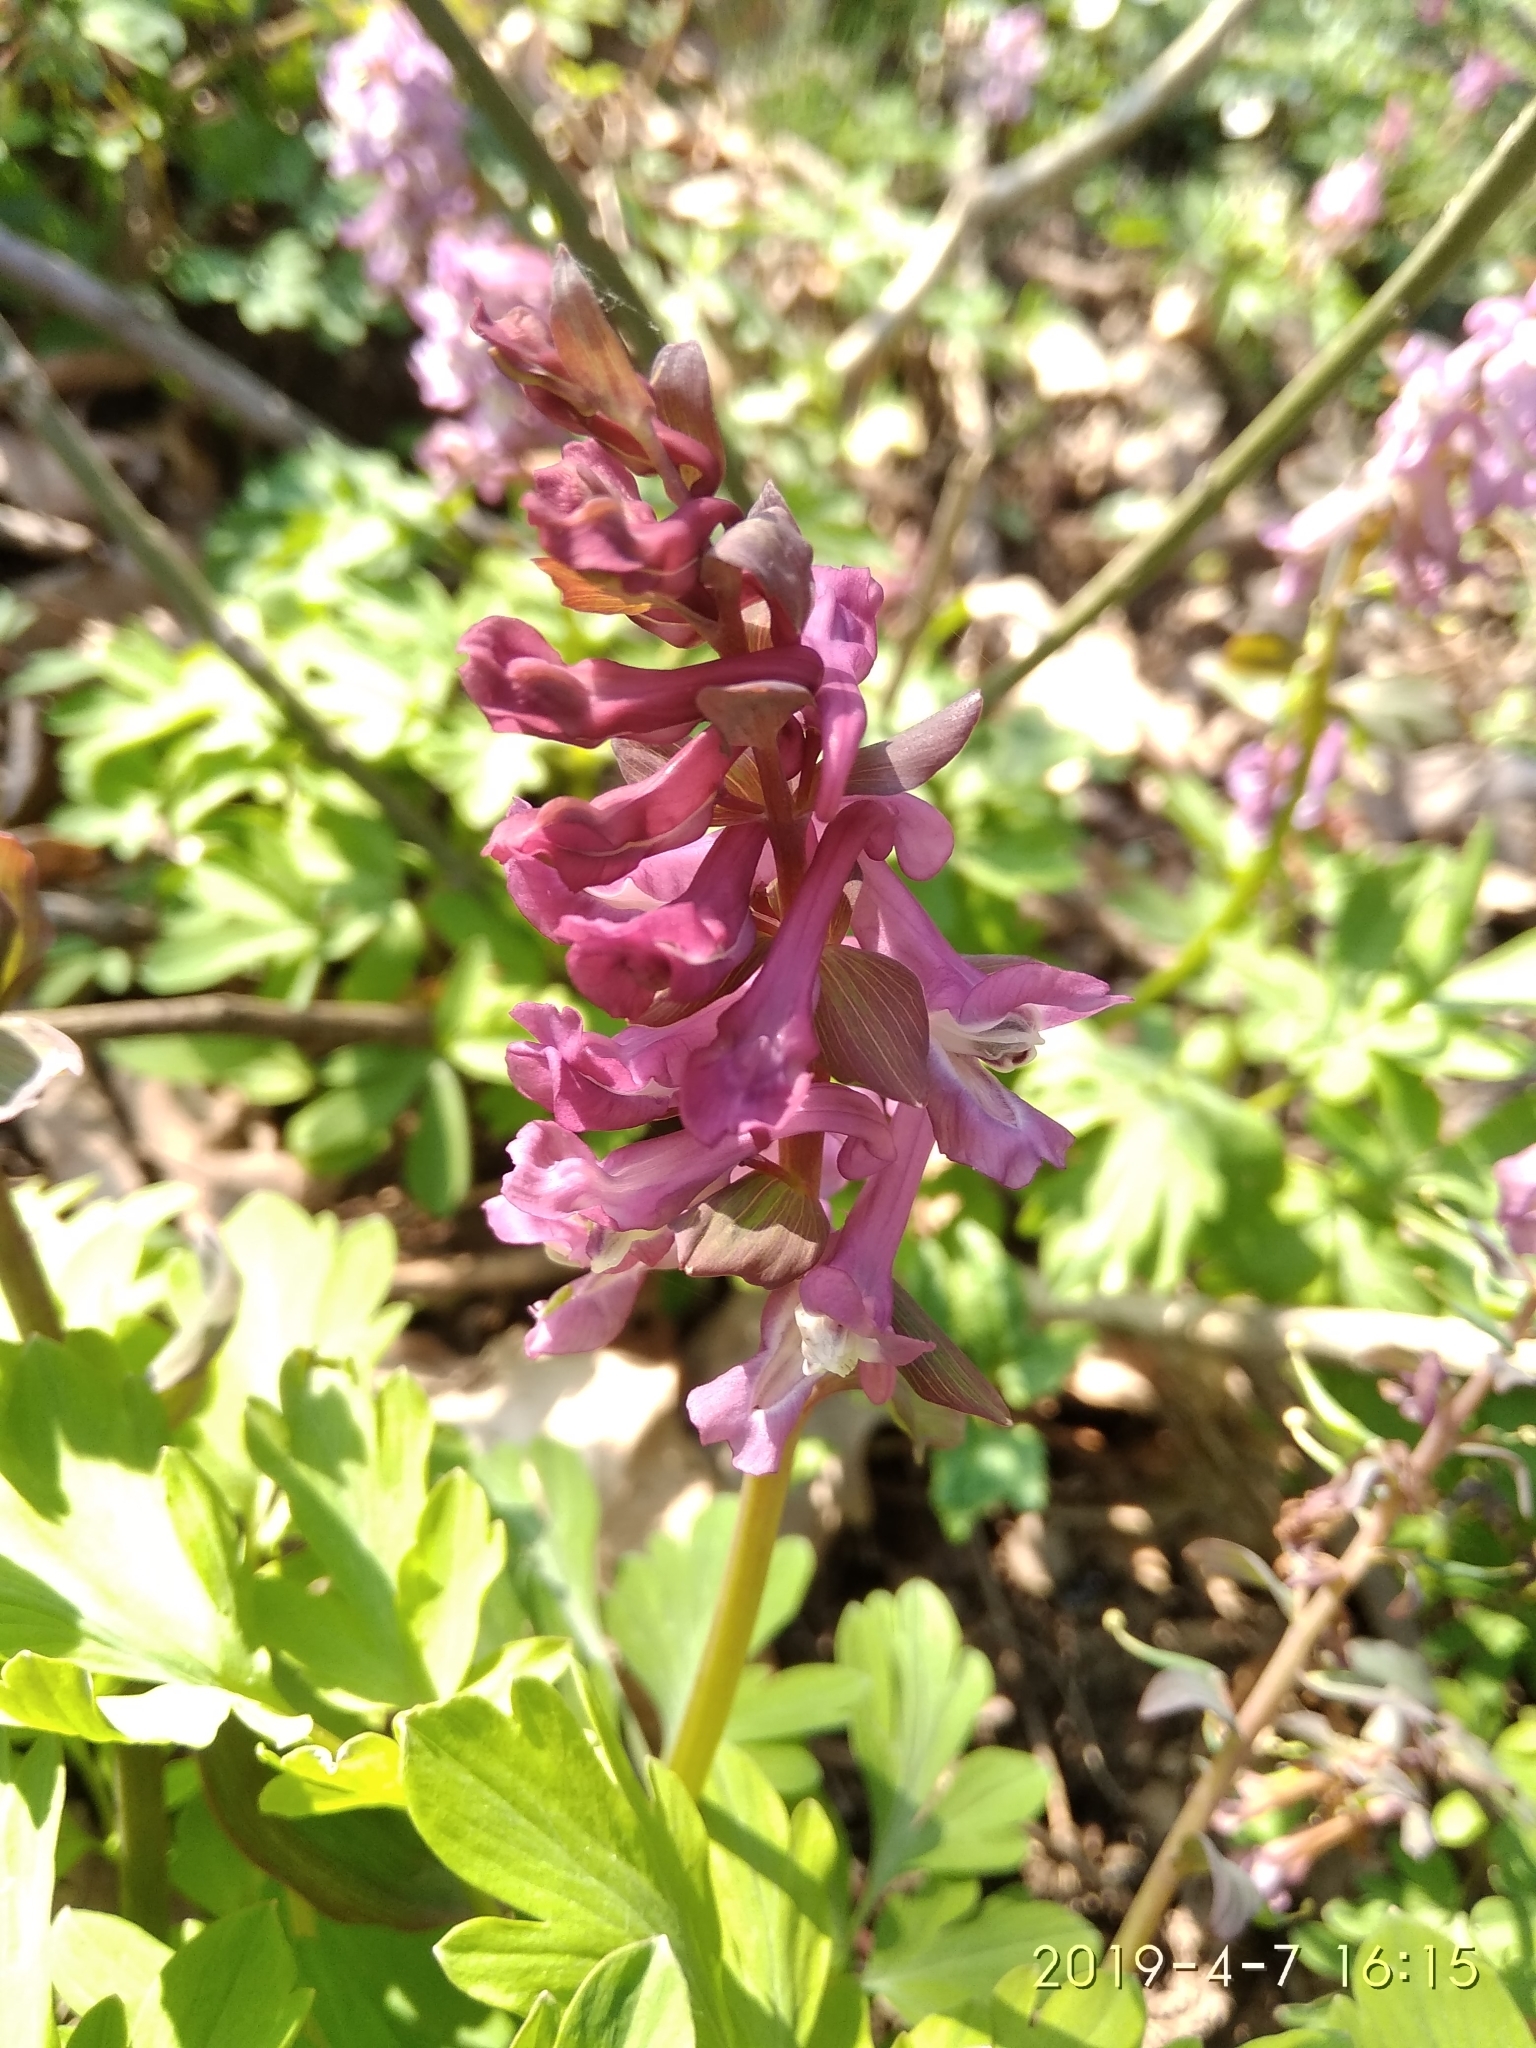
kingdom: Plantae
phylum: Tracheophyta
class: Magnoliopsida
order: Ranunculales
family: Papaveraceae
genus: Corydalis
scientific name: Corydalis cava
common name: Hollowroot
